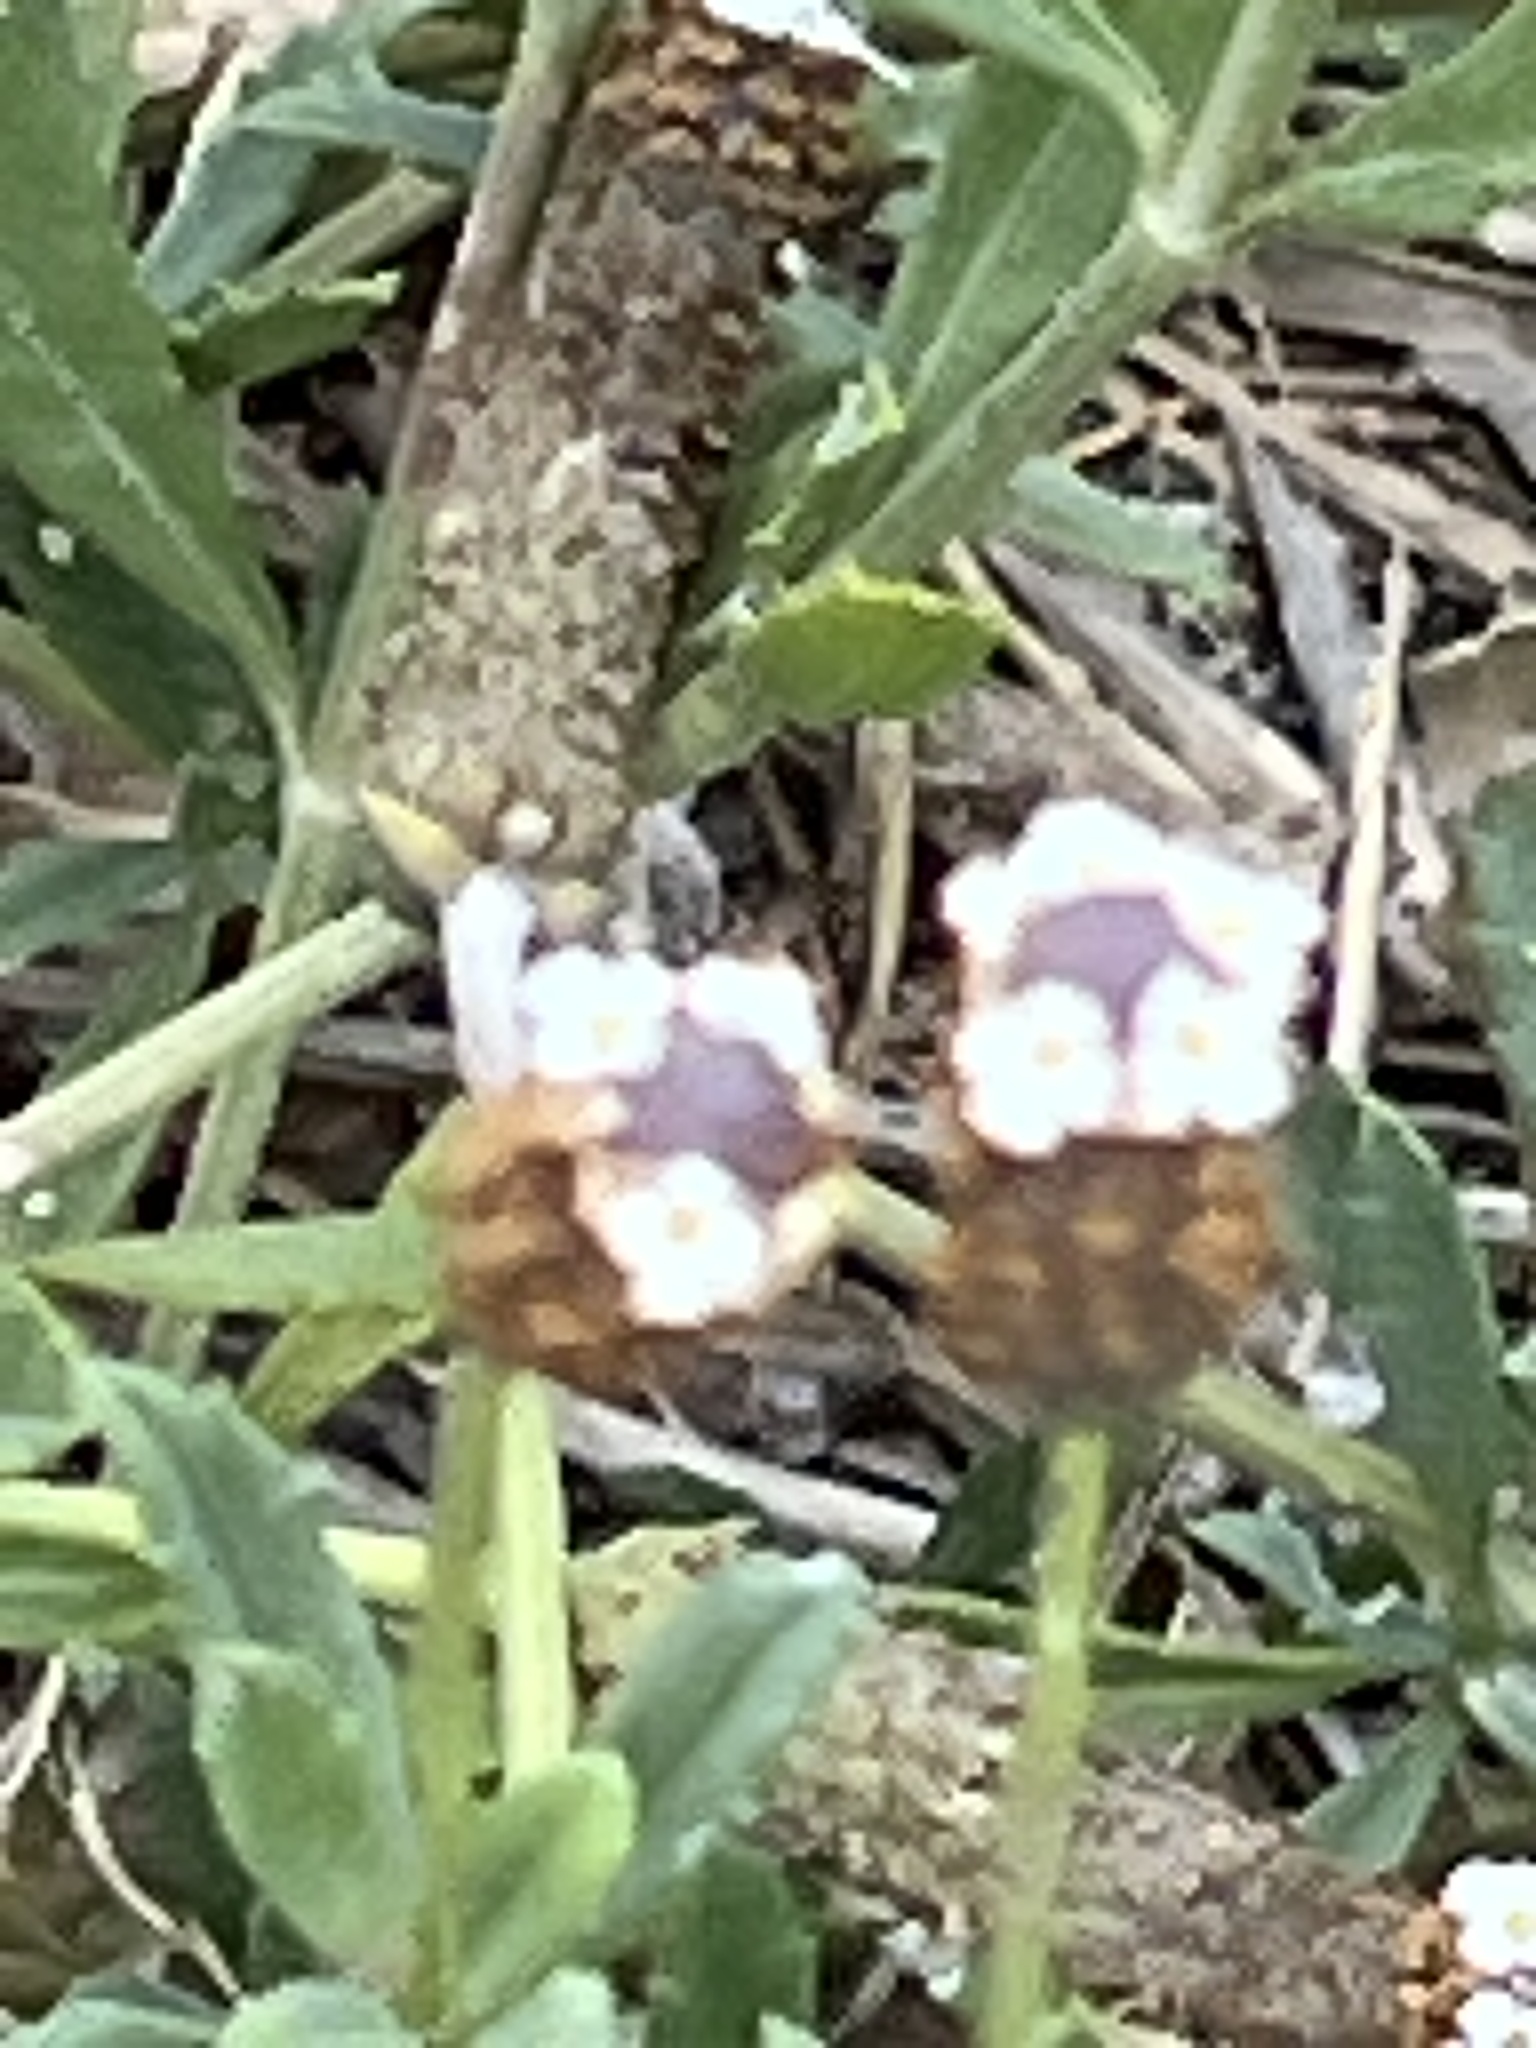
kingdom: Plantae
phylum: Tracheophyta
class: Magnoliopsida
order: Lamiales
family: Verbenaceae
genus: Phyla
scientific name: Phyla nodiflora
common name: Frogfruit
